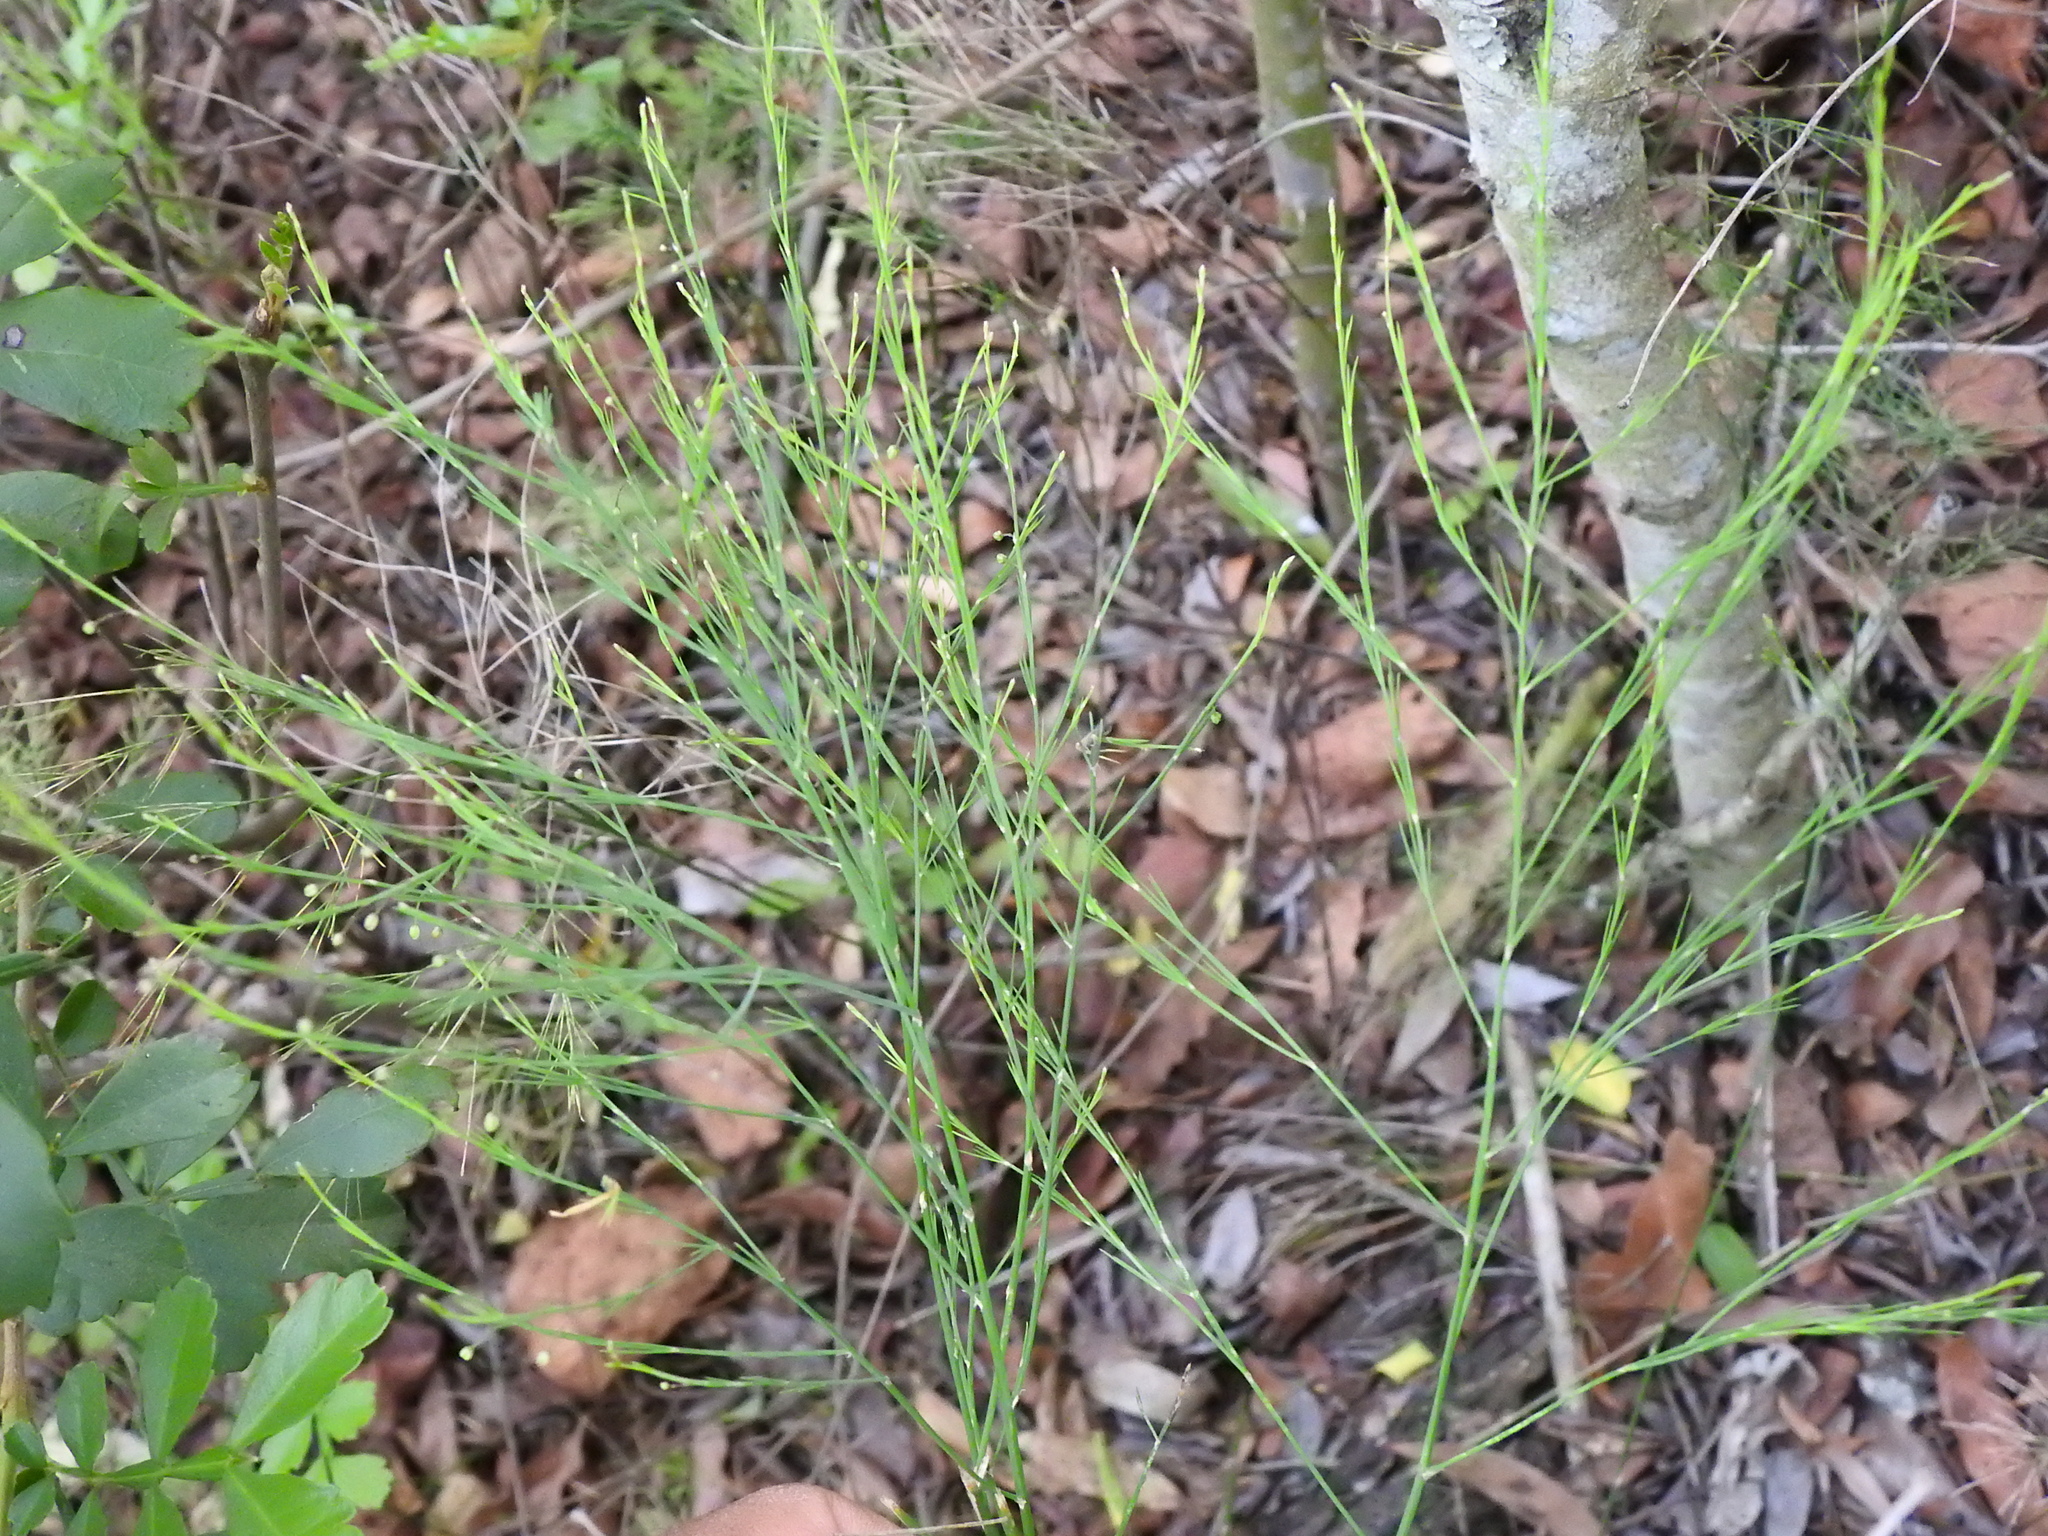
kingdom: Plantae
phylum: Tracheophyta
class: Liliopsida
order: Asparagales
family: Asparagaceae
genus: Asparagus
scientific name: Asparagus virgatus
